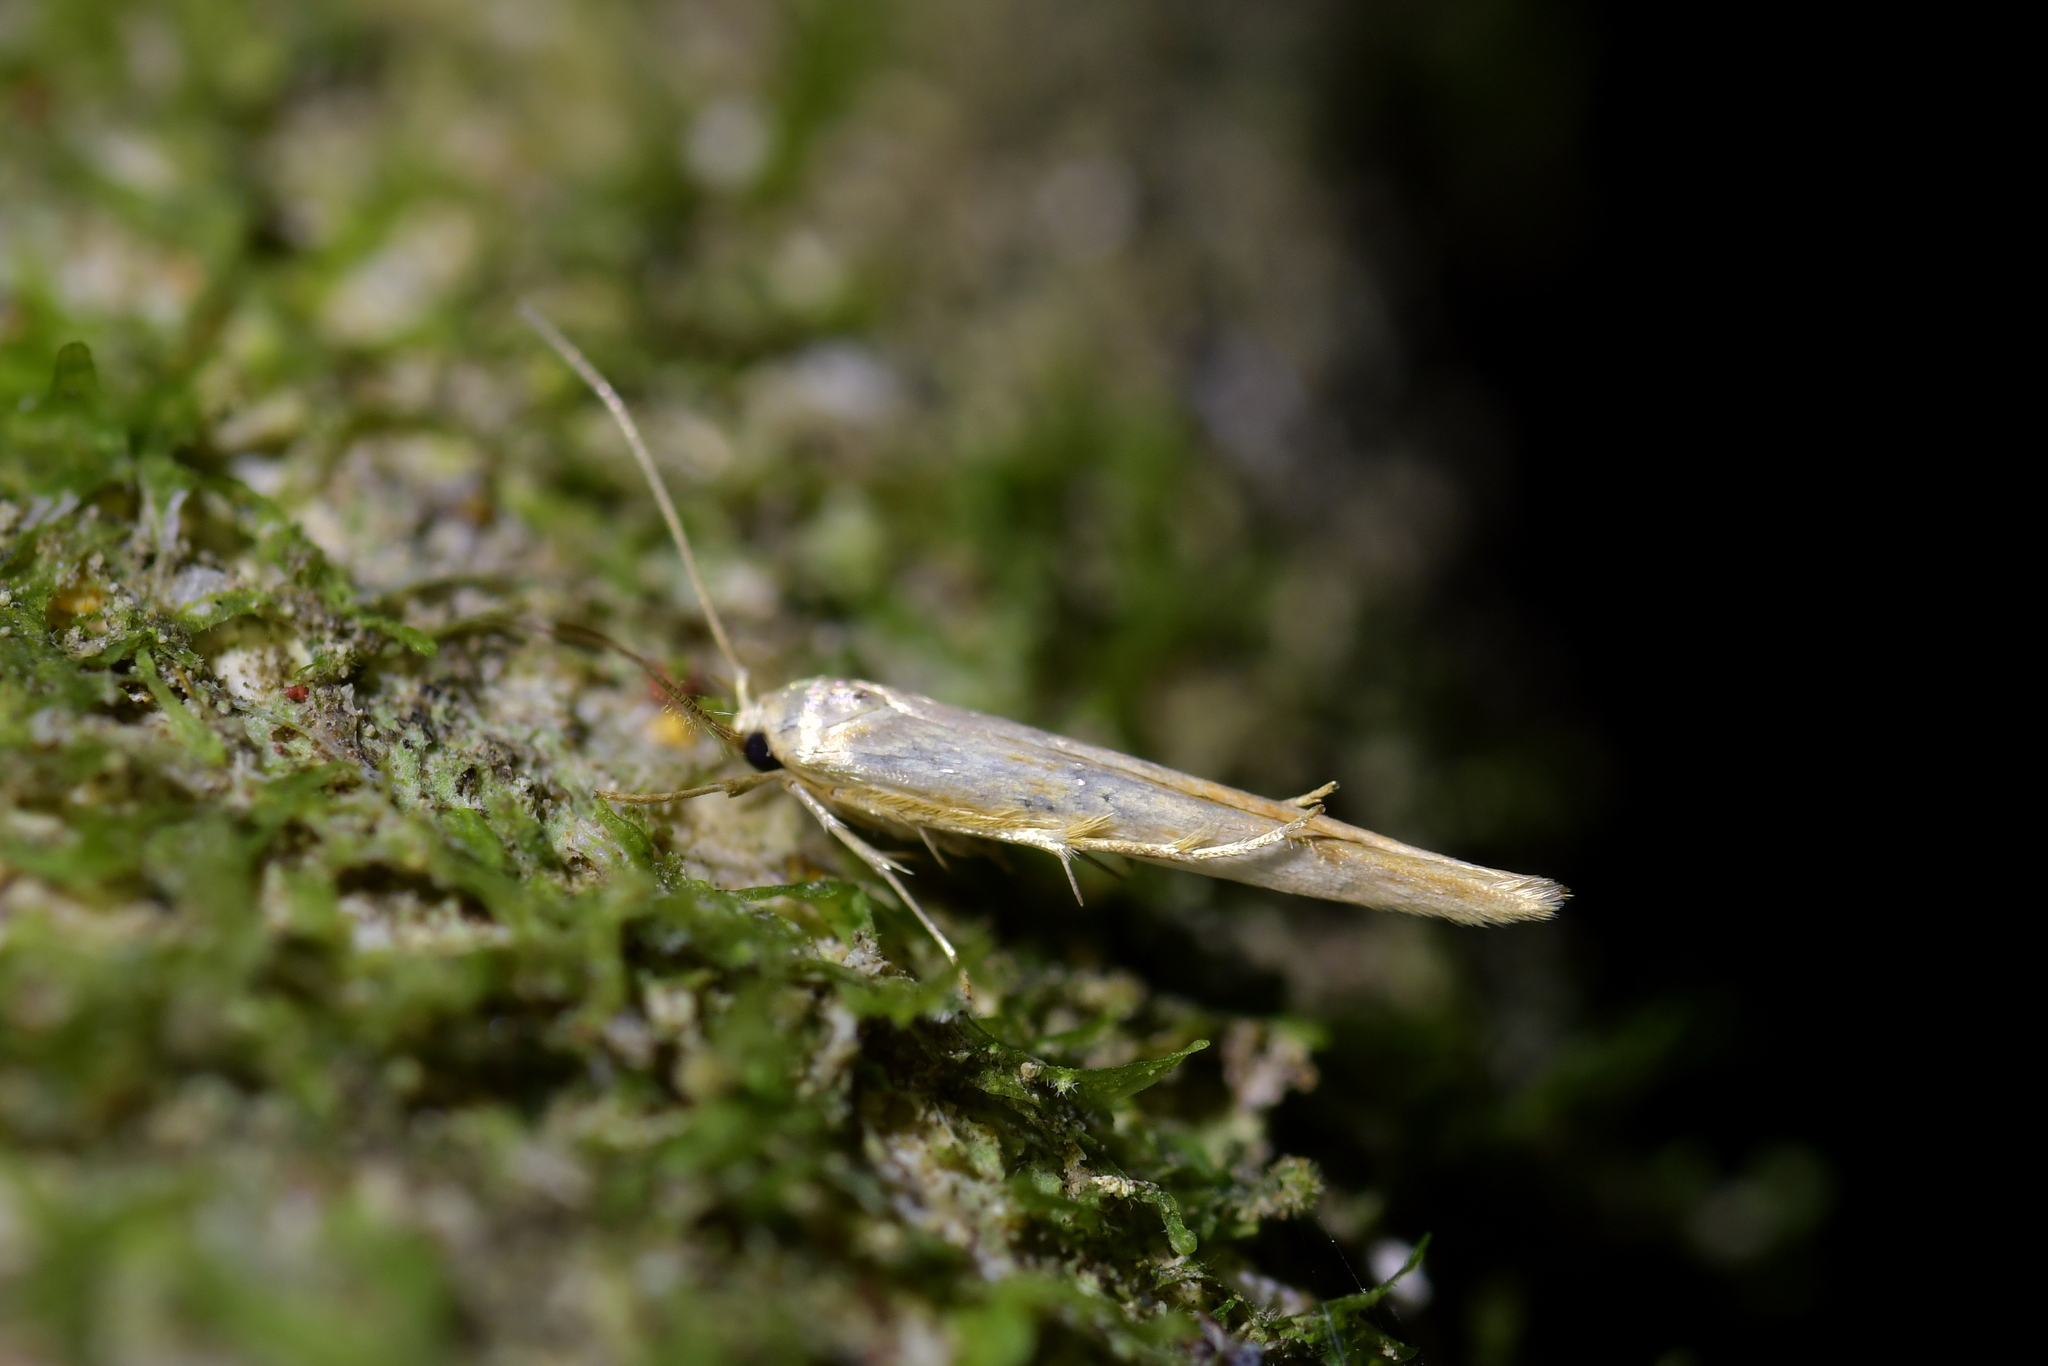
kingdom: Animalia
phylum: Arthropoda
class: Insecta
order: Lepidoptera
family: Stathmopodidae
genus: Stathmopoda
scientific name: Stathmopoda aposema
